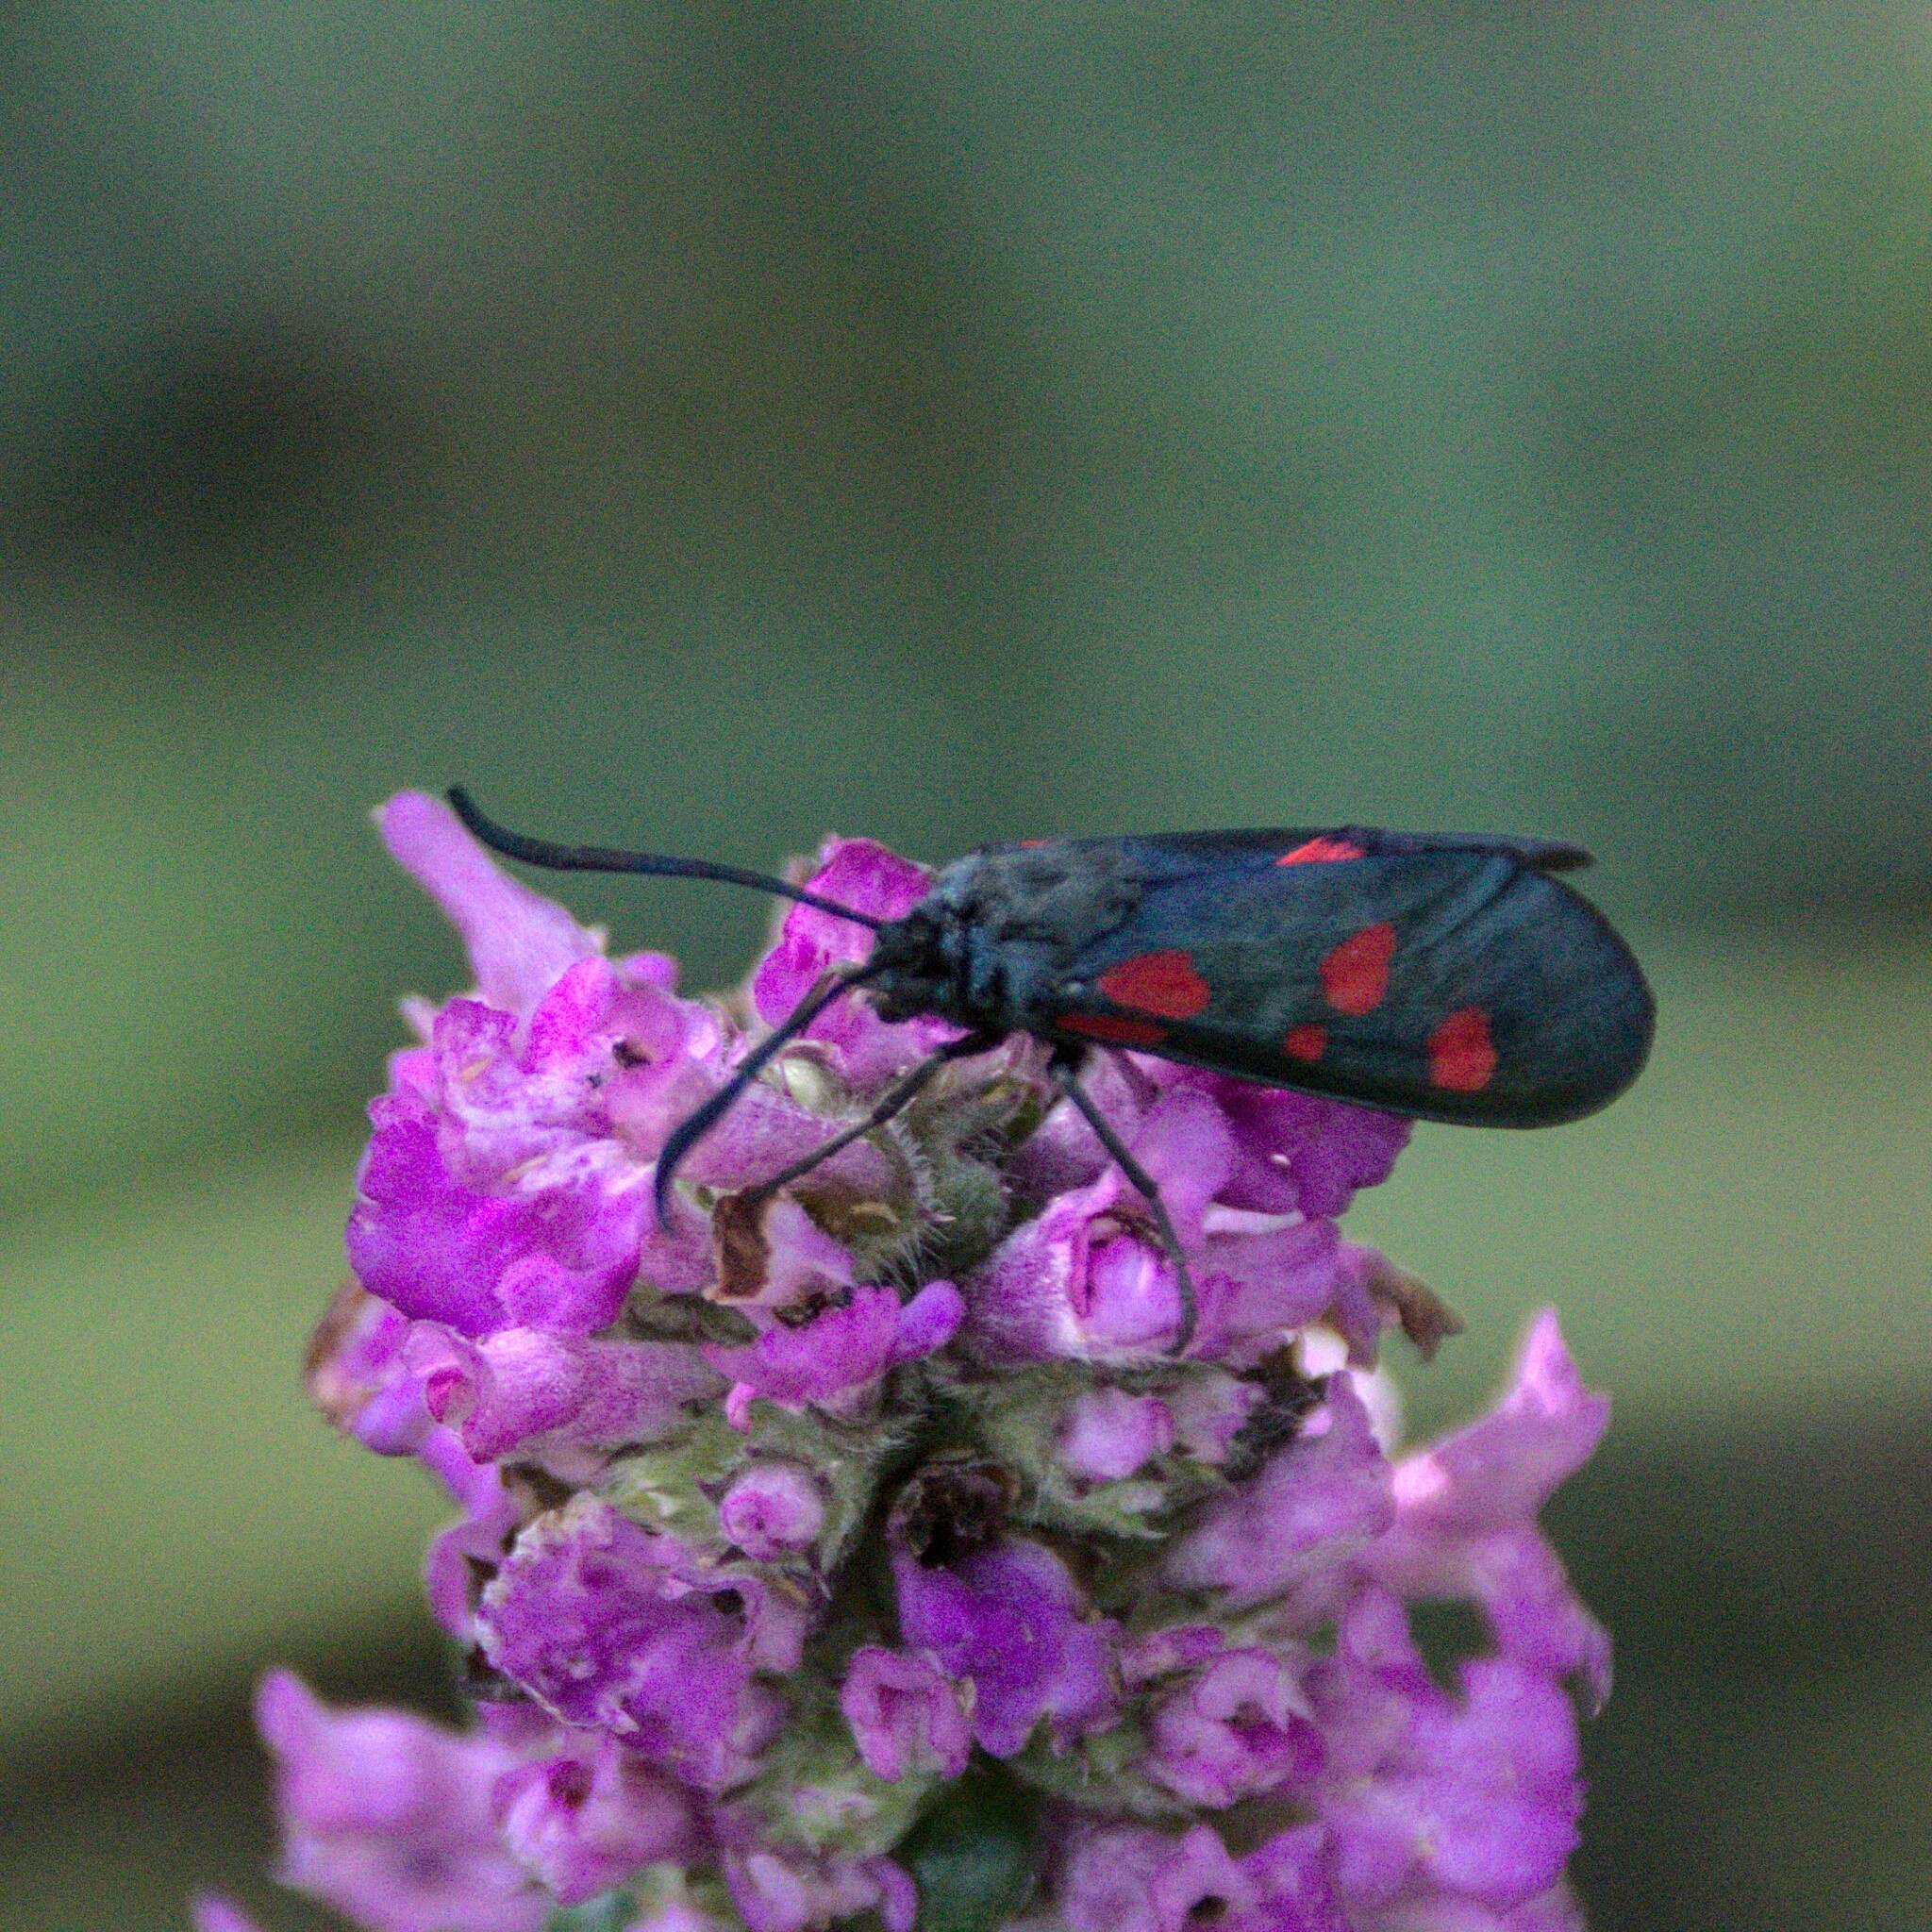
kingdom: Animalia
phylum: Arthropoda
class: Insecta
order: Lepidoptera
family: Zygaenidae
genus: Zygaena
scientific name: Zygaena lonicerae
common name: Narrow-bordered five-spot burnet
